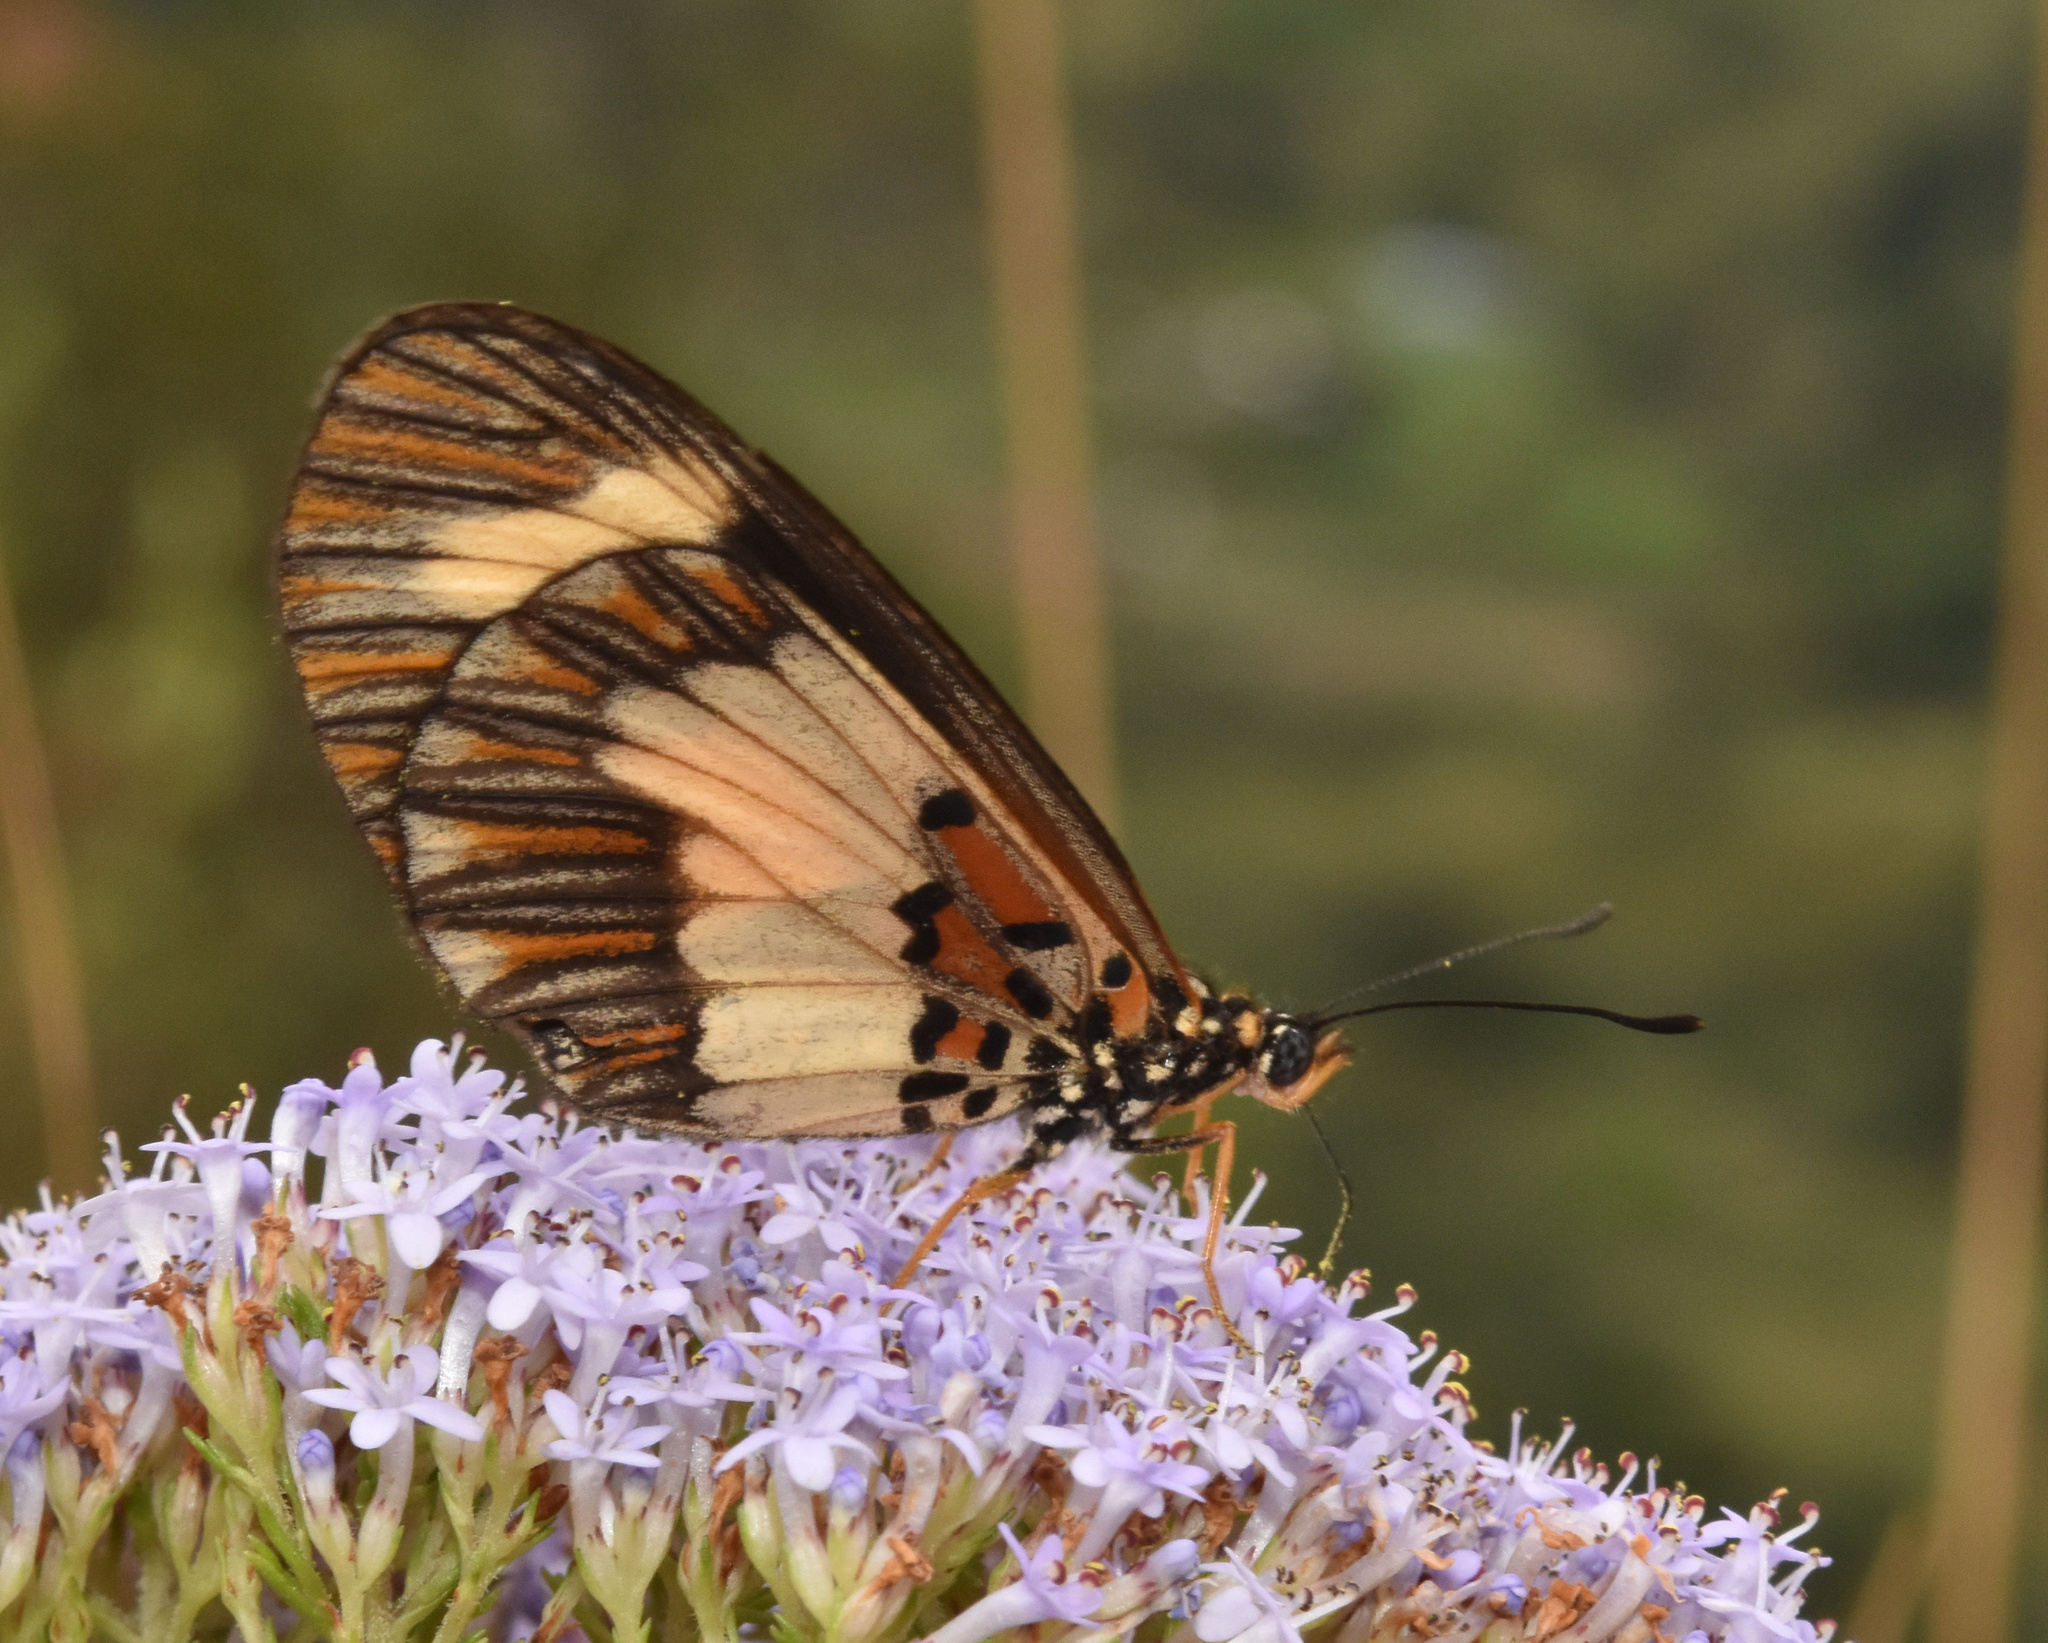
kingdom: Animalia
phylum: Arthropoda
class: Insecta
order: Lepidoptera
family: Nymphalidae
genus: Acraea
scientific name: Acraea cabira
